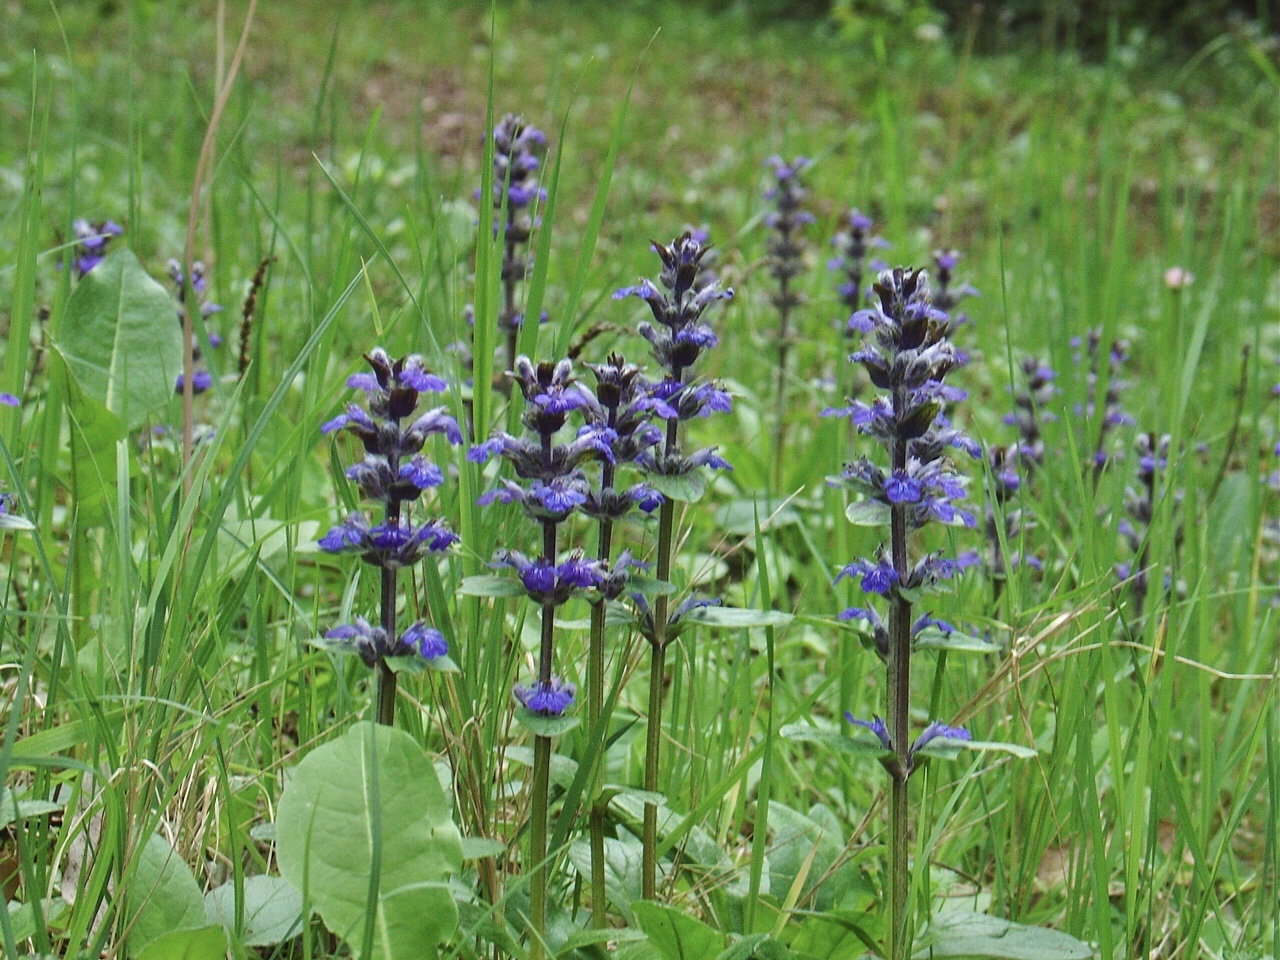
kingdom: Plantae
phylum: Tracheophyta
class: Magnoliopsida
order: Lamiales
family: Lamiaceae
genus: Ajuga
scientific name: Ajuga reptans
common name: Bugle
